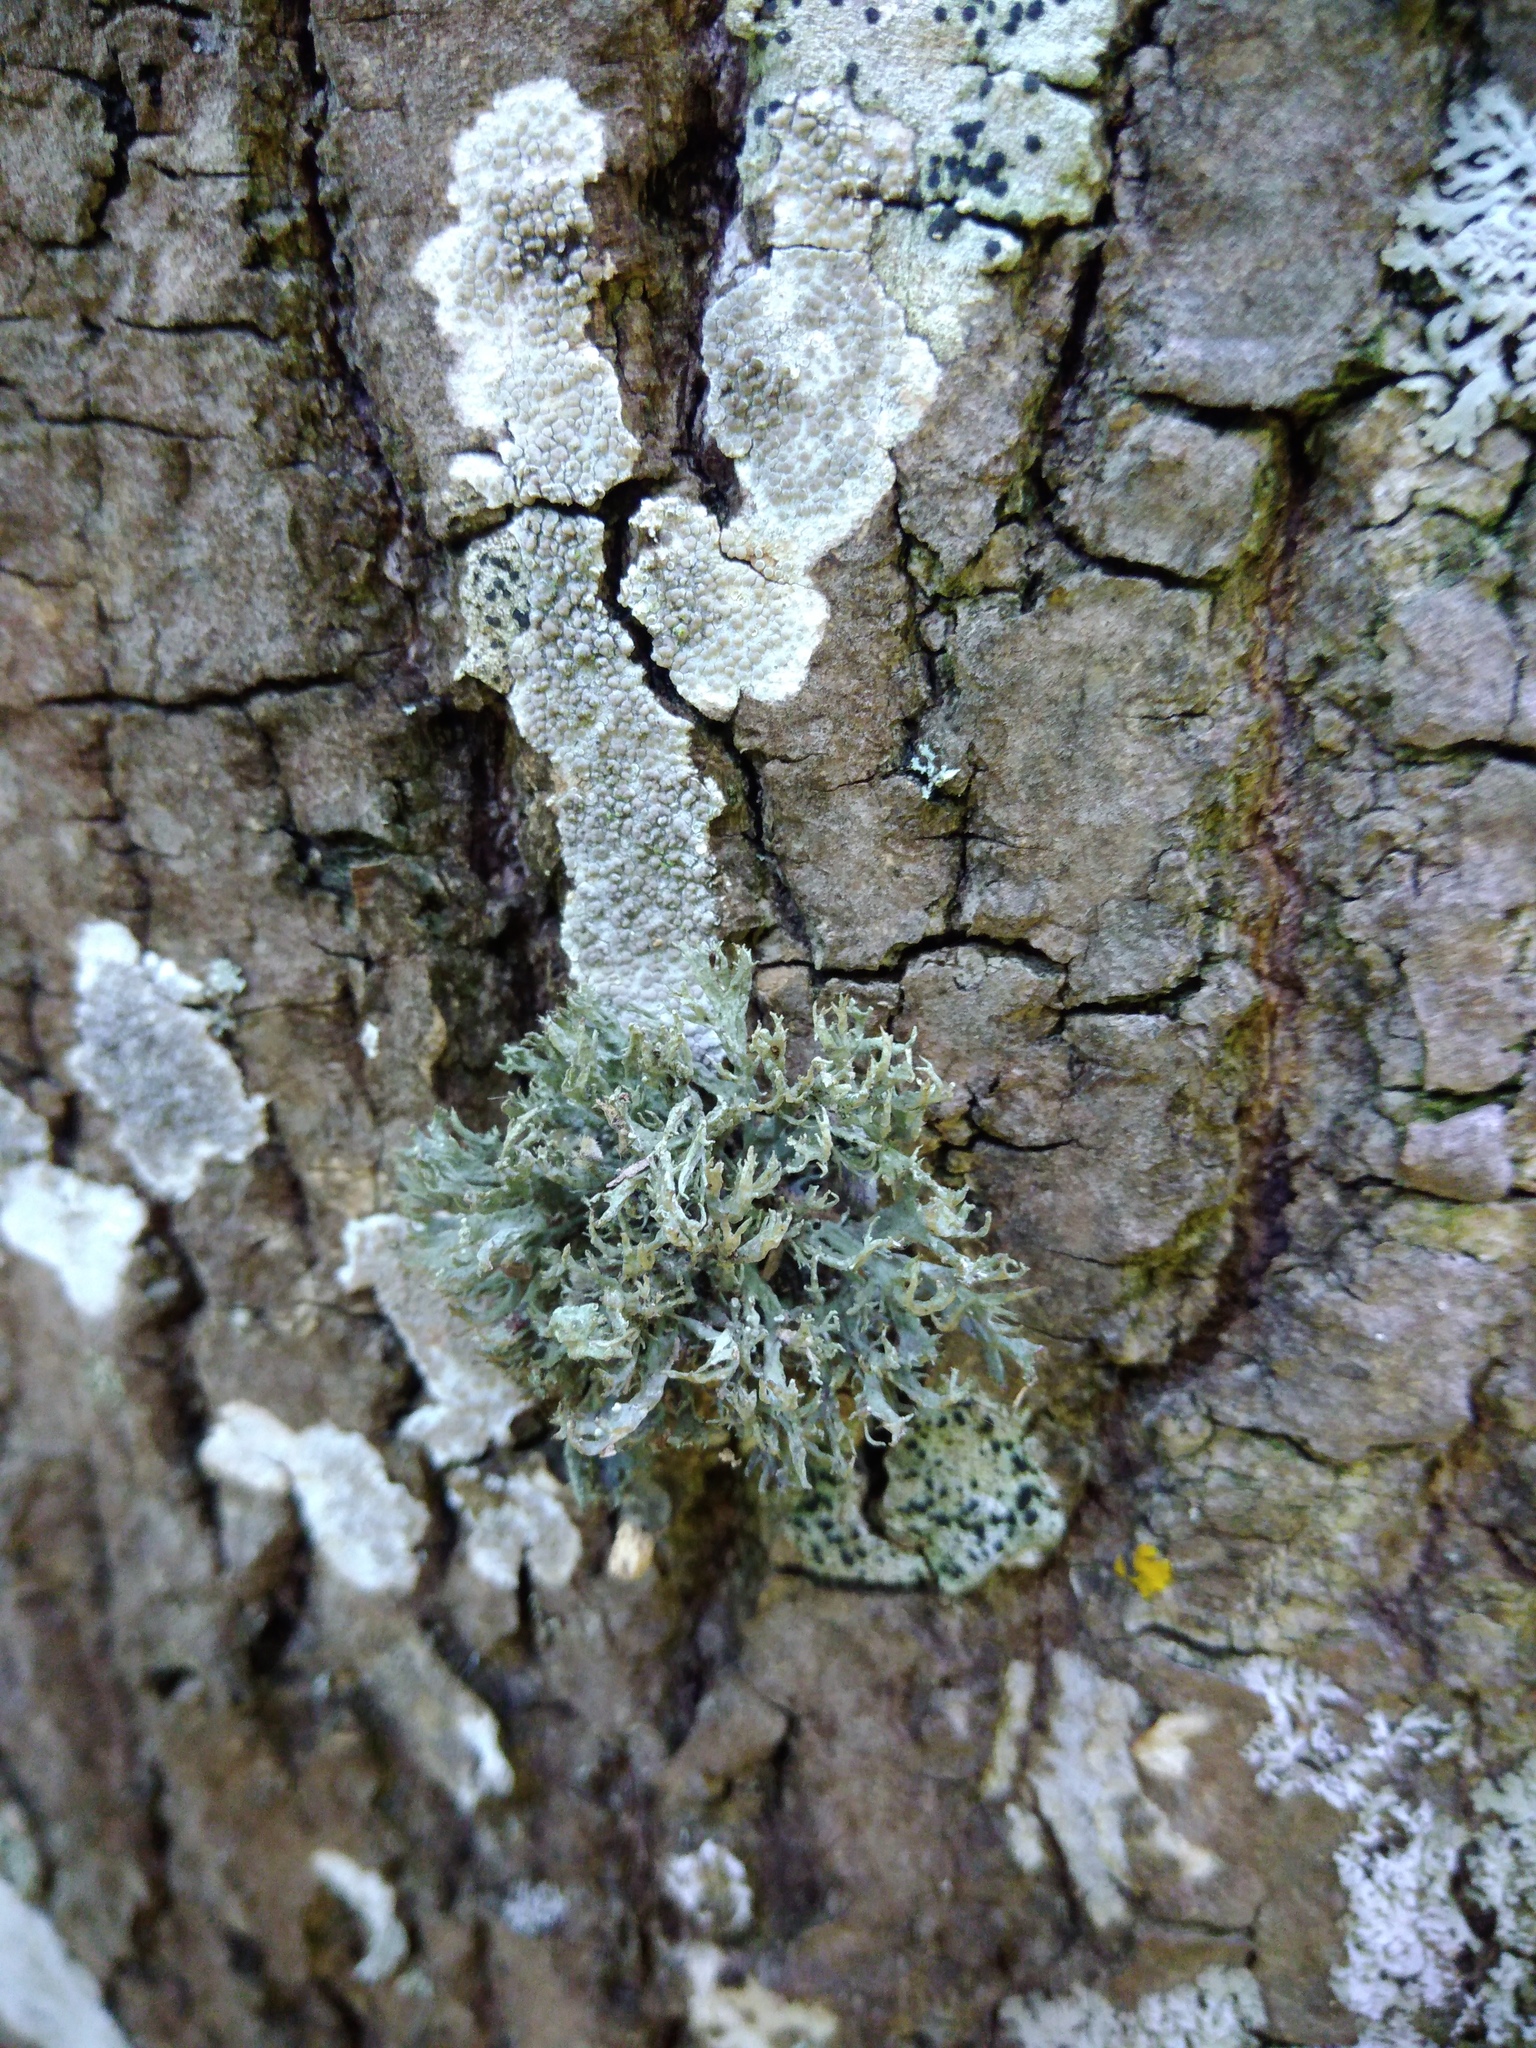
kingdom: Fungi
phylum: Ascomycota
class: Lecanoromycetes
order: Lecanorales
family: Parmeliaceae
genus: Evernia
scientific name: Evernia prunastri
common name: Oak moss
